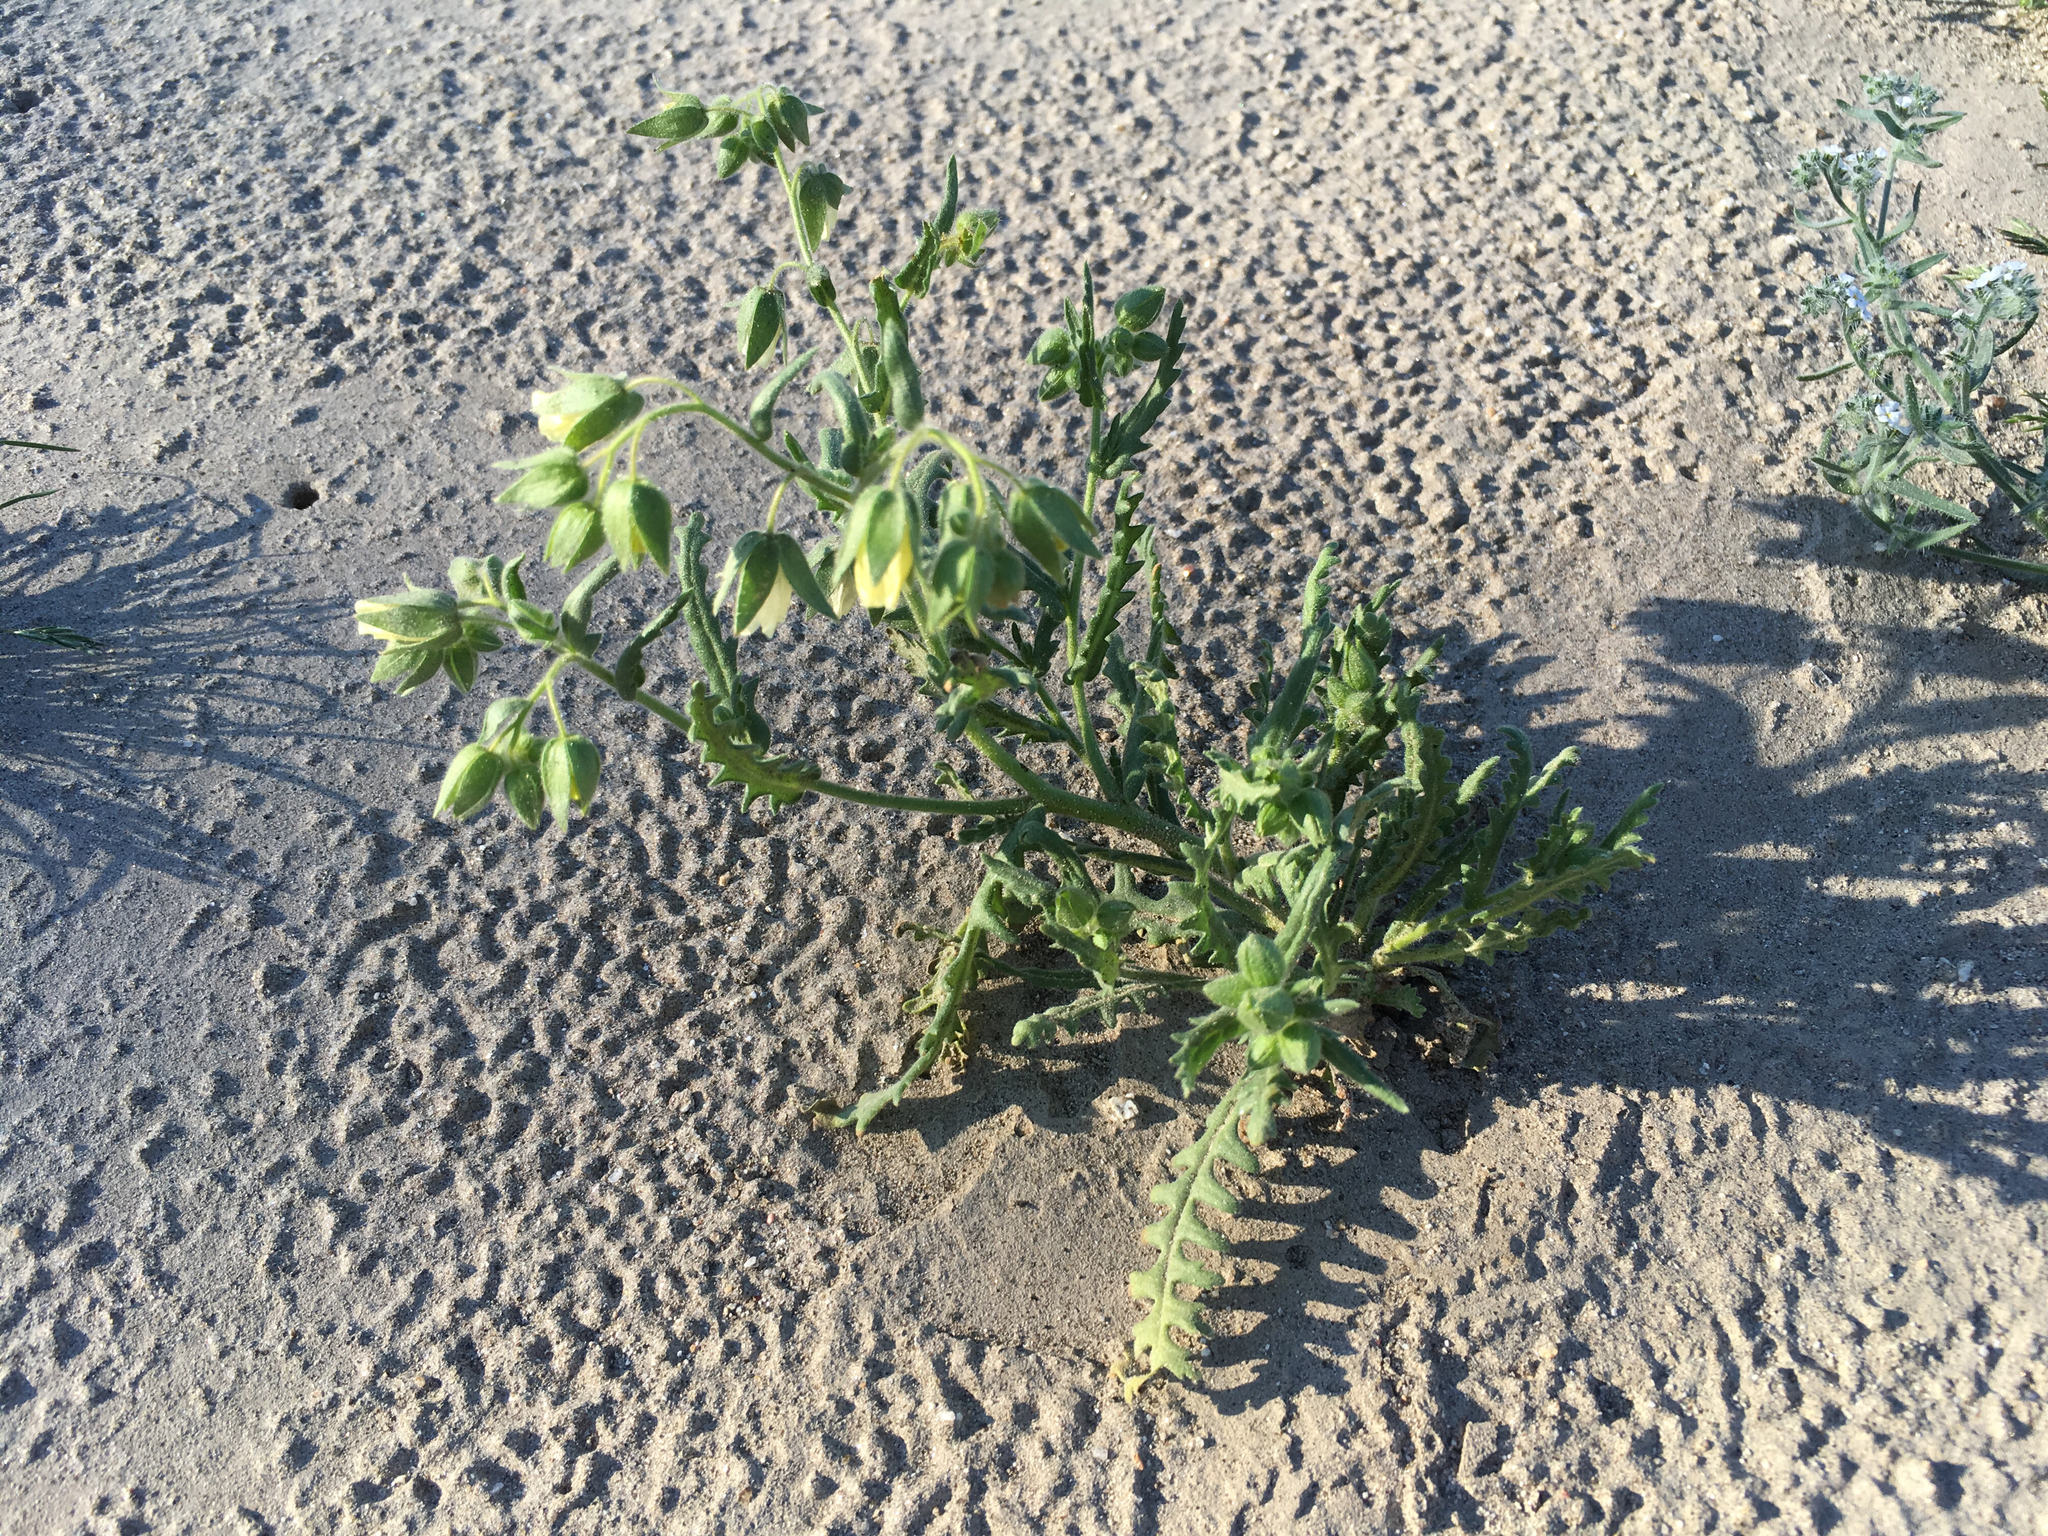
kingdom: Plantae
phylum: Tracheophyta
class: Magnoliopsida
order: Boraginales
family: Hydrophyllaceae
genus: Emmenanthe
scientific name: Emmenanthe penduliflora
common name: Whispering-bells
